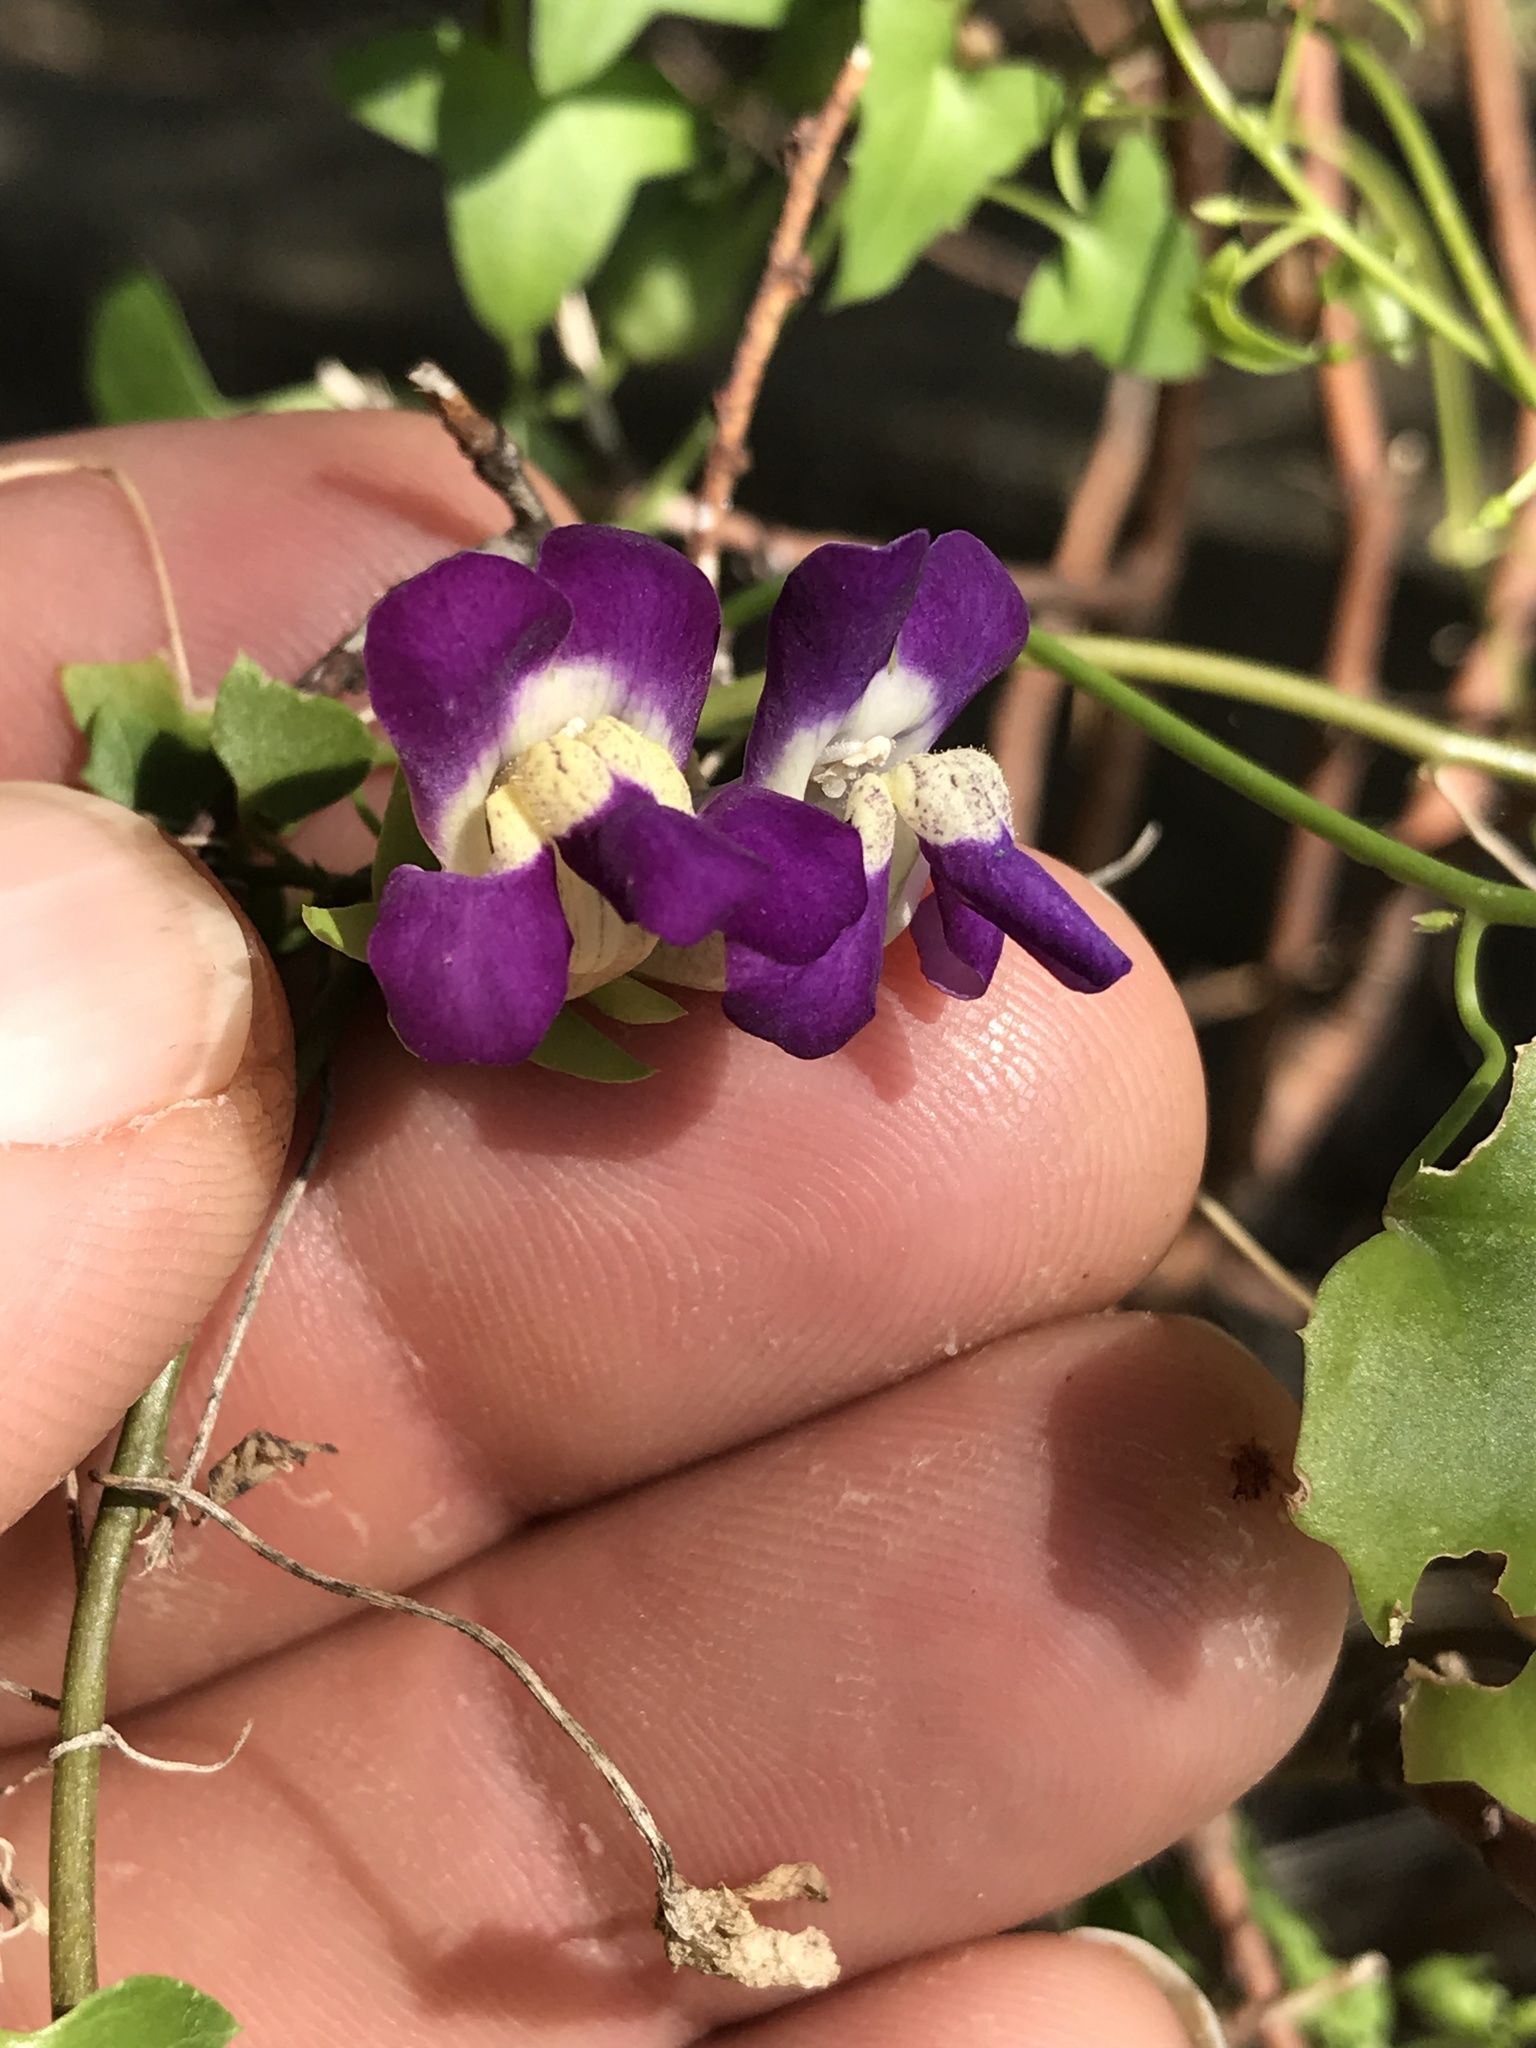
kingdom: Plantae
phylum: Tracheophyta
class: Magnoliopsida
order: Lamiales
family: Plantaginaceae
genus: Maurandella
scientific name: Maurandella antirrhiniflora
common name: Violet twining-snapdragon
